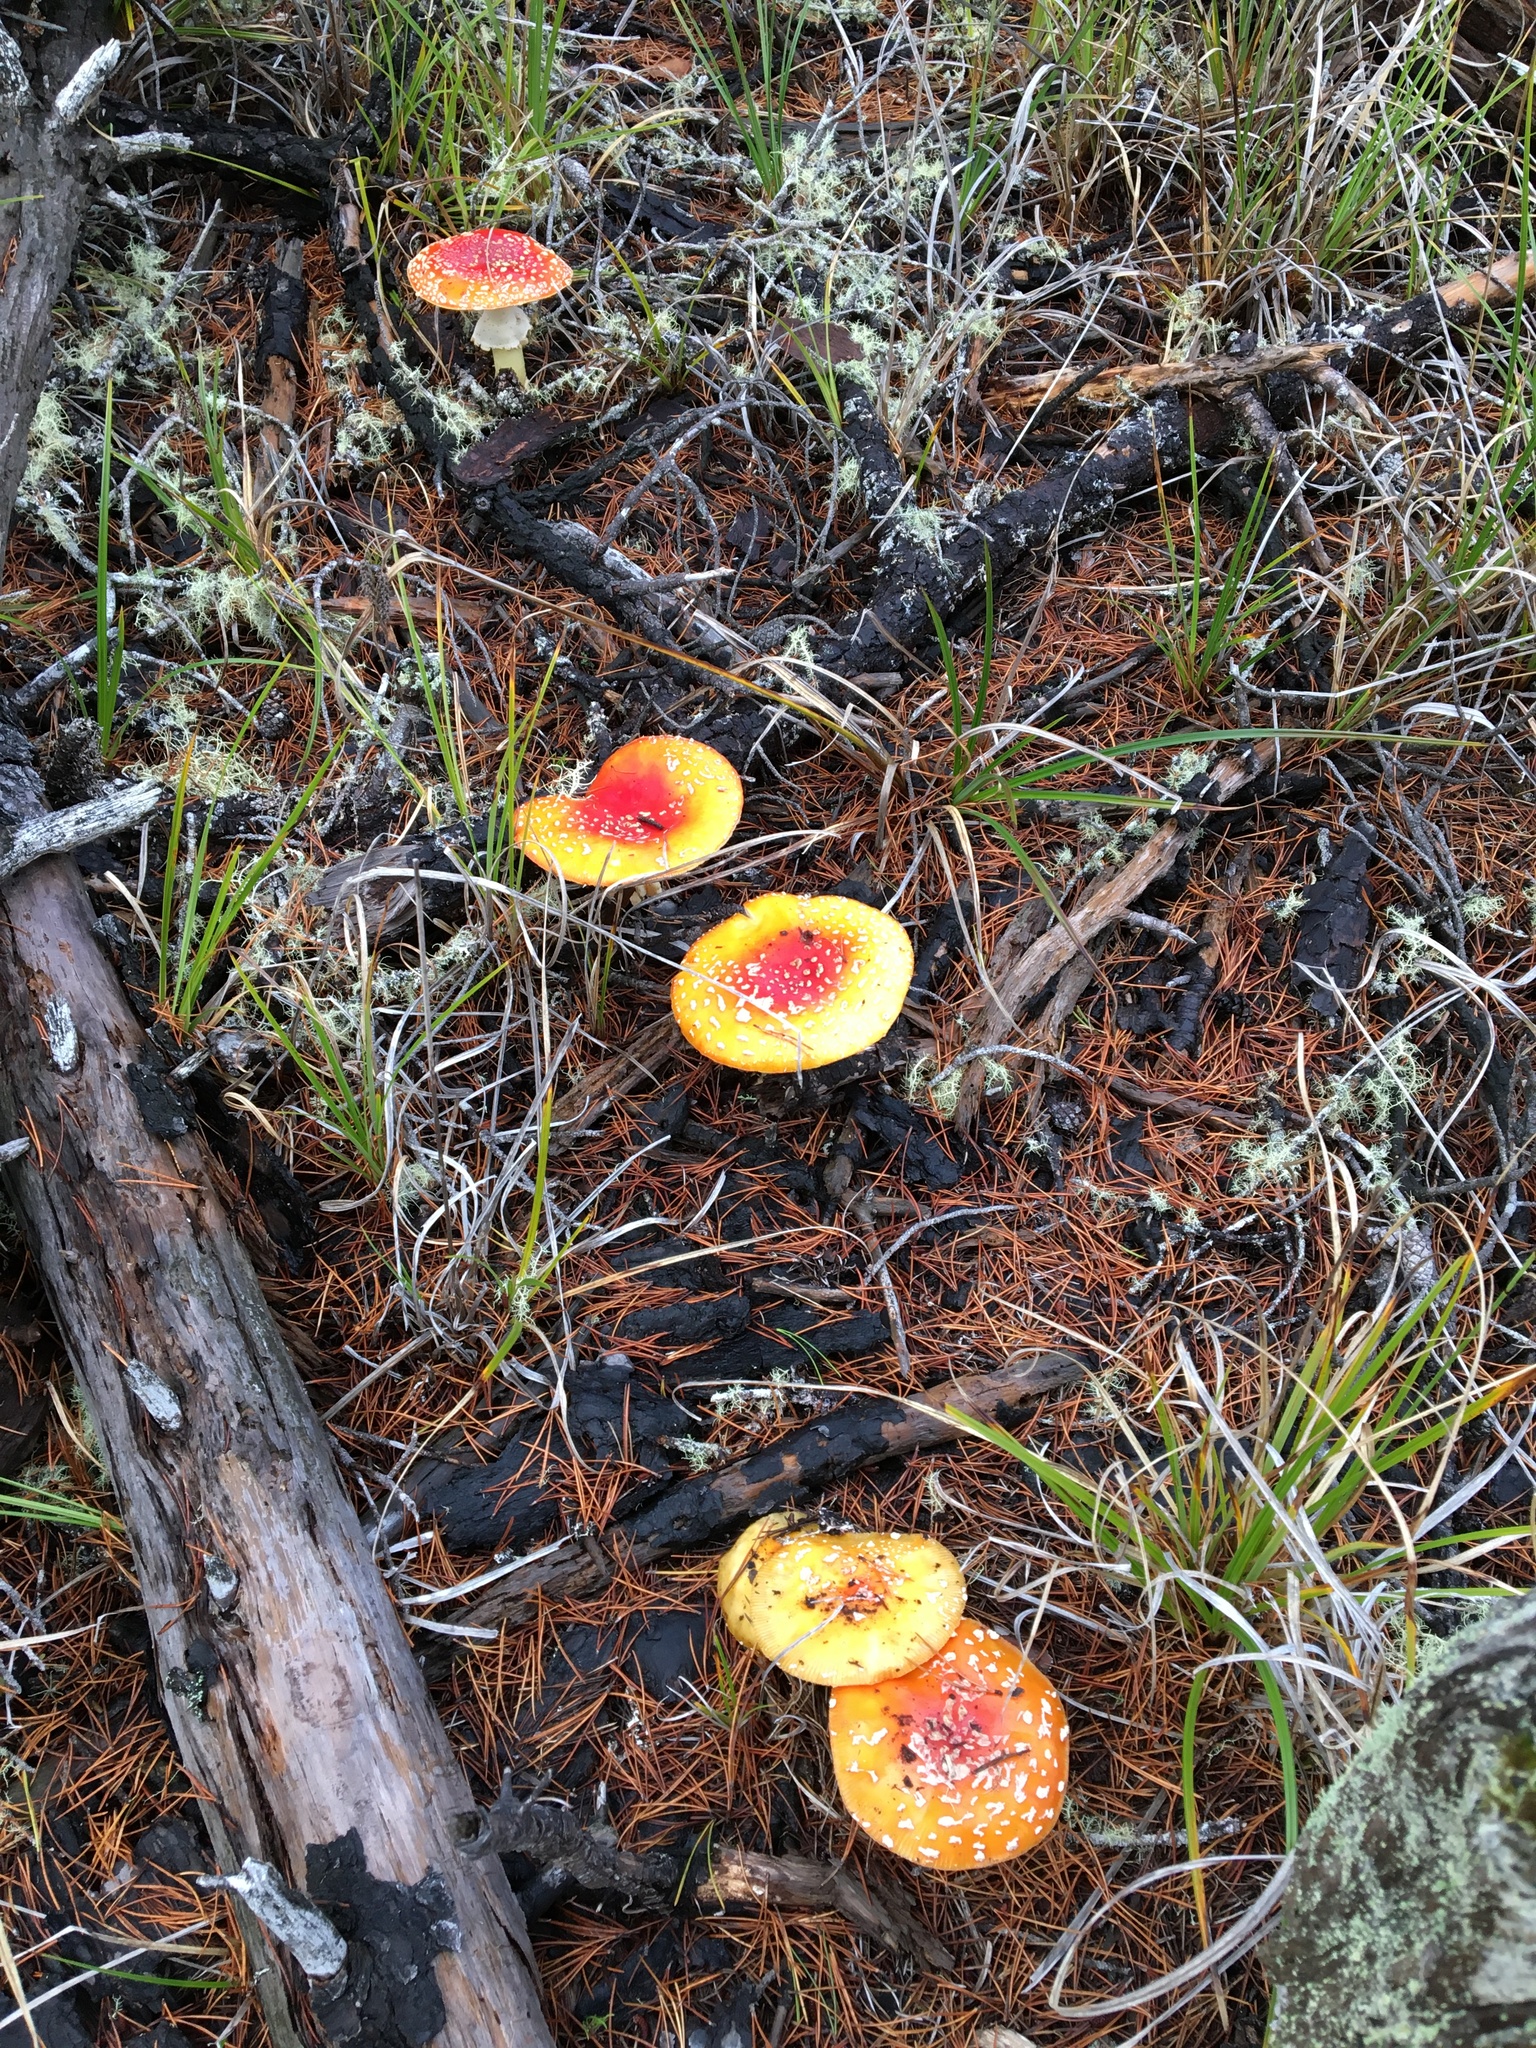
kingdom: Fungi
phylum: Basidiomycota
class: Agaricomycetes
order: Agaricales
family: Amanitaceae
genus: Amanita
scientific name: Amanita muscaria
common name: Fly agaric
